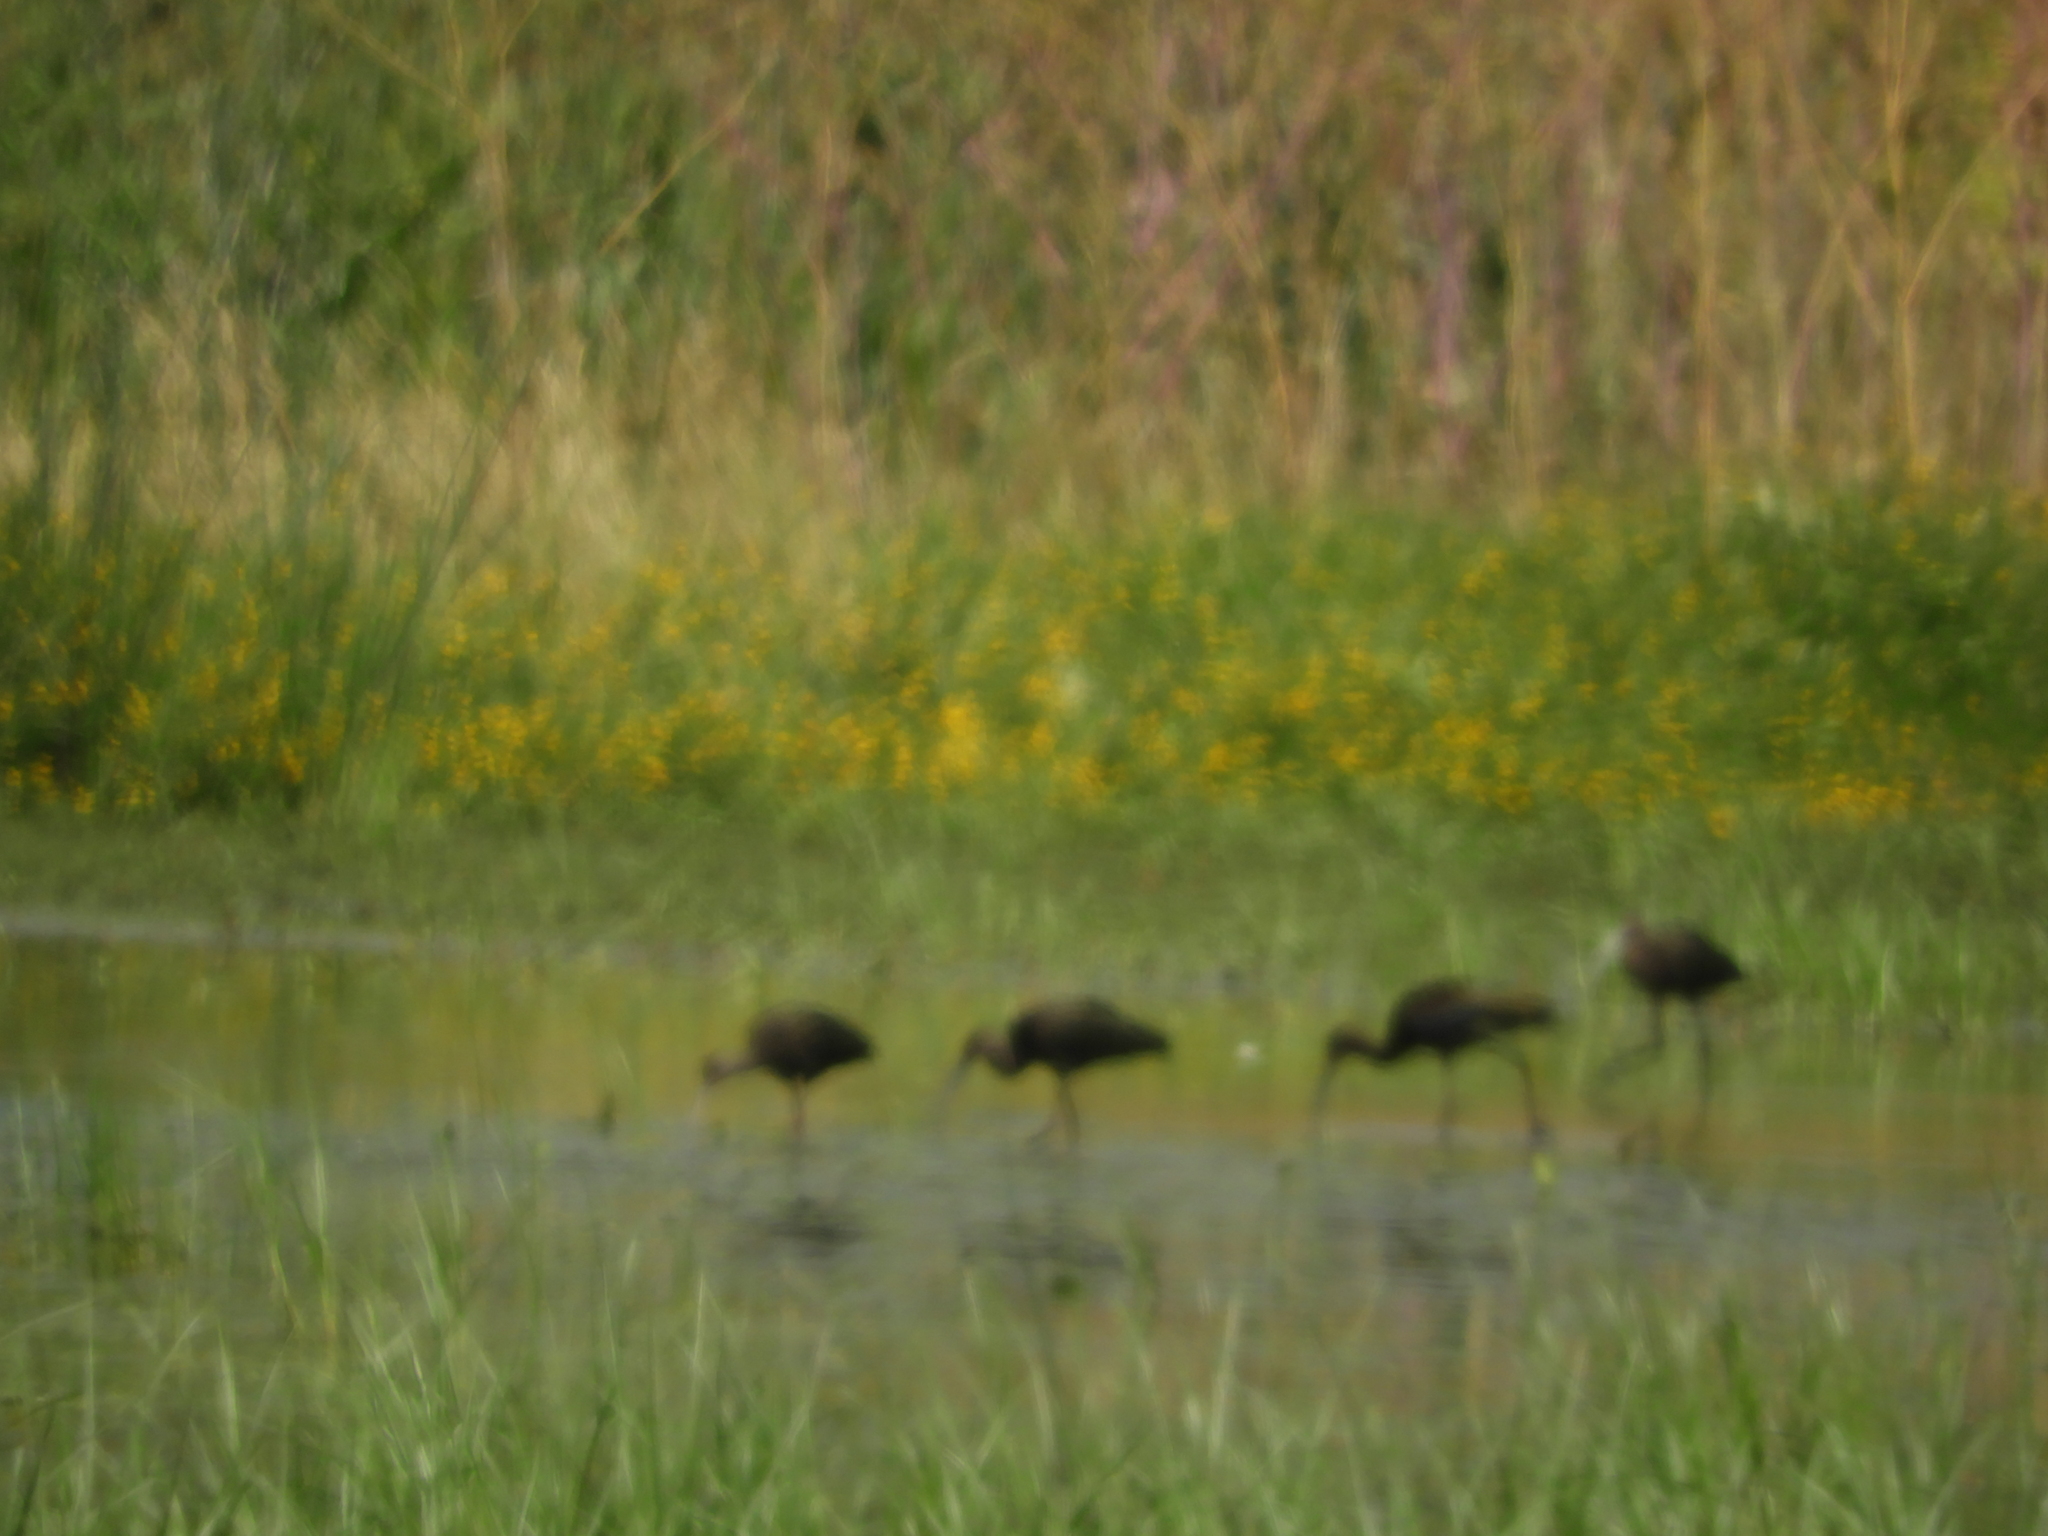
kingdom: Animalia
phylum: Chordata
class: Aves
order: Pelecaniformes
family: Threskiornithidae
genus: Plegadis
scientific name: Plegadis chihi
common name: White-faced ibis
